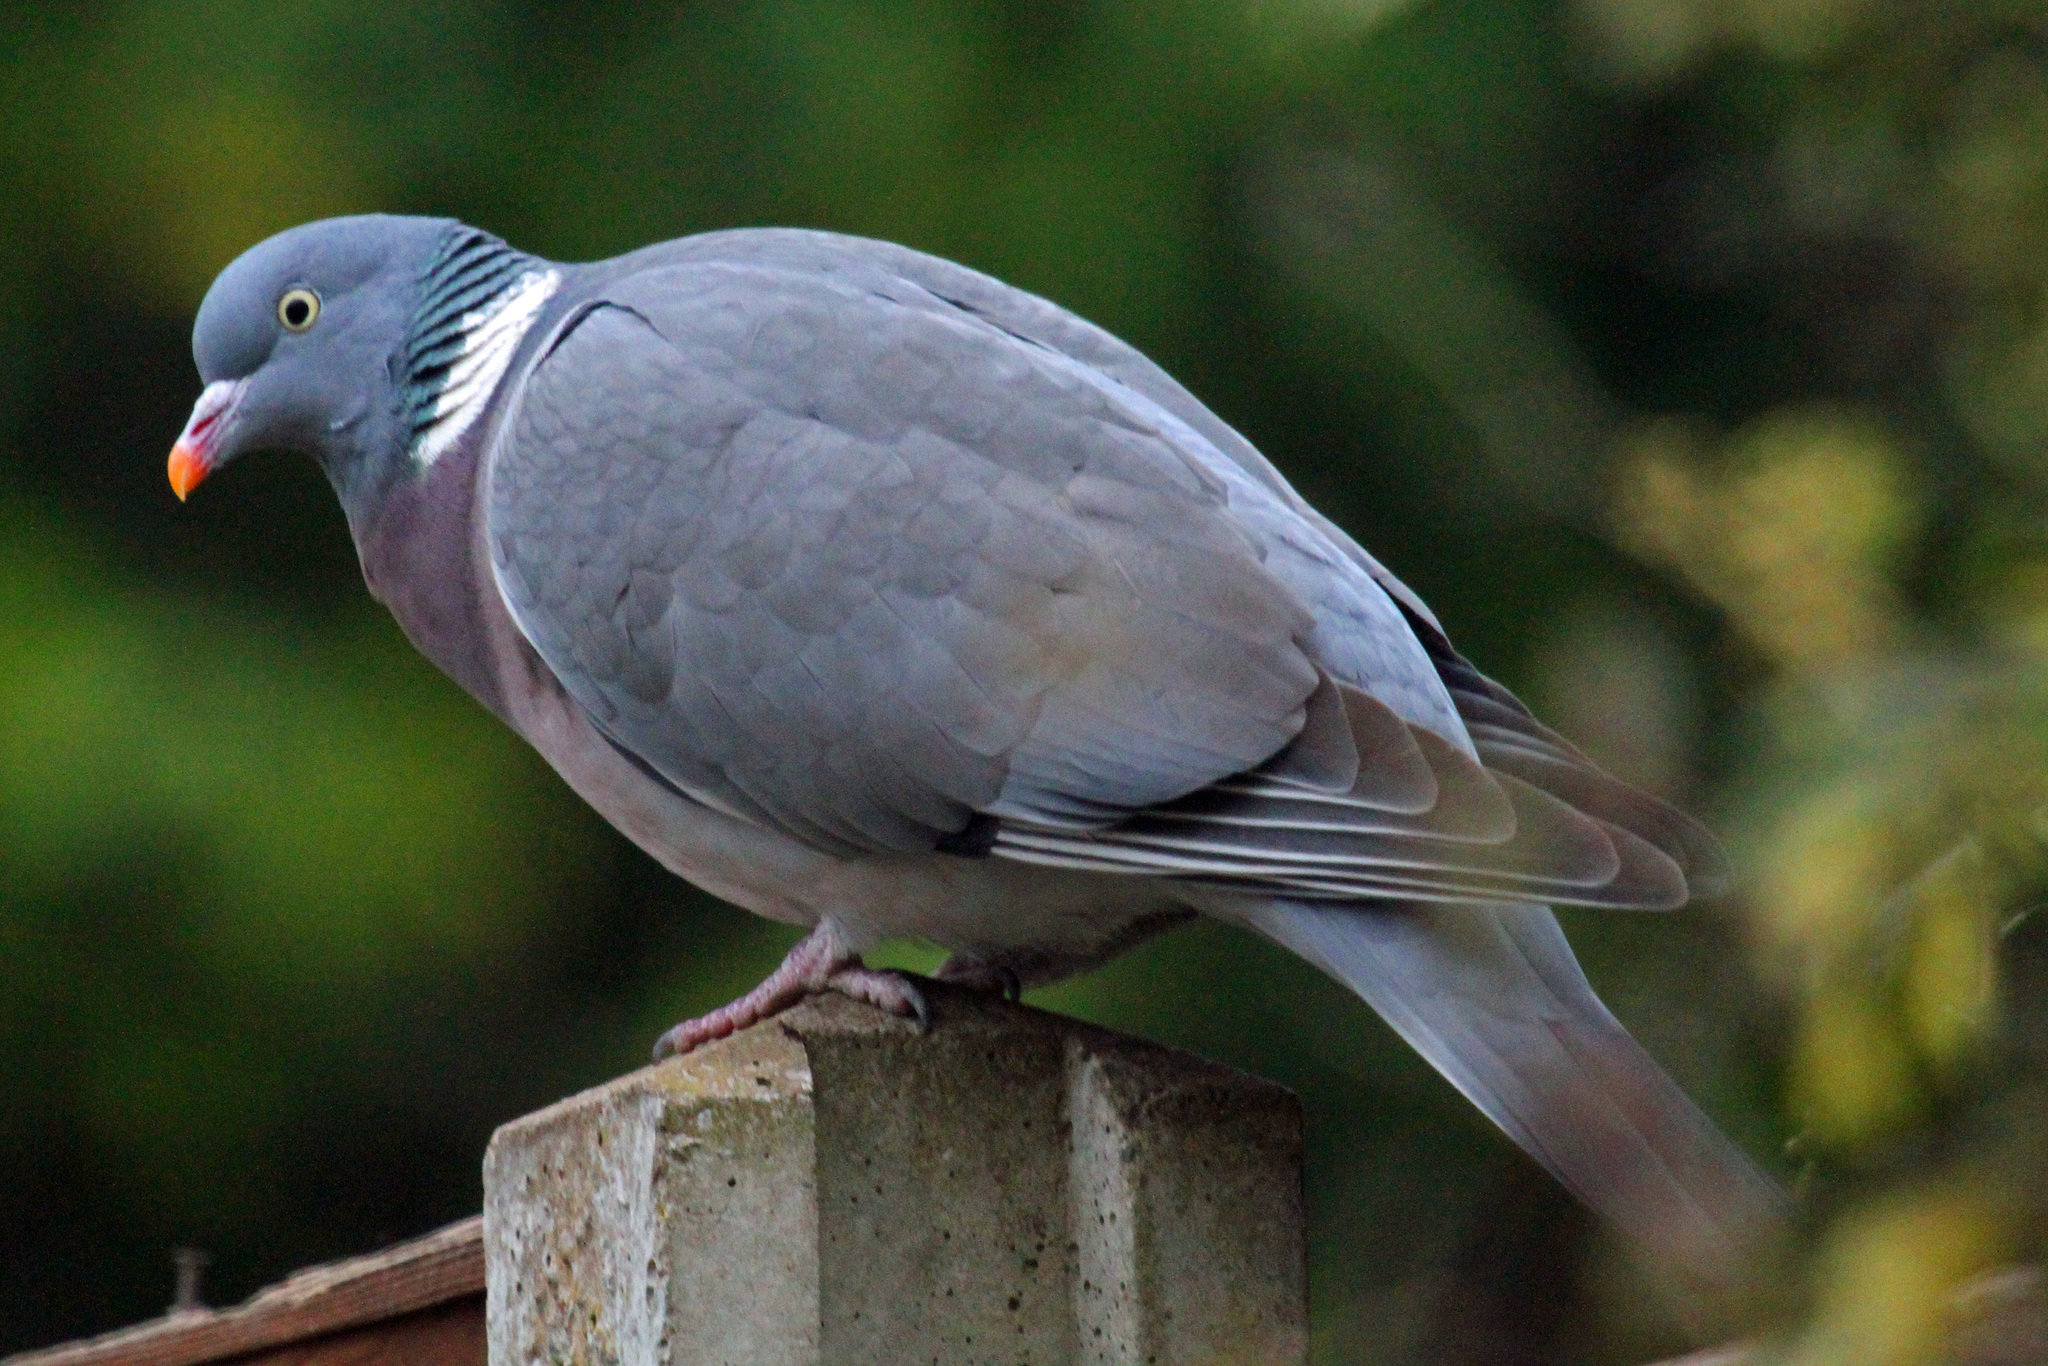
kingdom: Animalia
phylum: Chordata
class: Aves
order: Columbiformes
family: Columbidae
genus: Columba
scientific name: Columba palumbus
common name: Common wood pigeon
